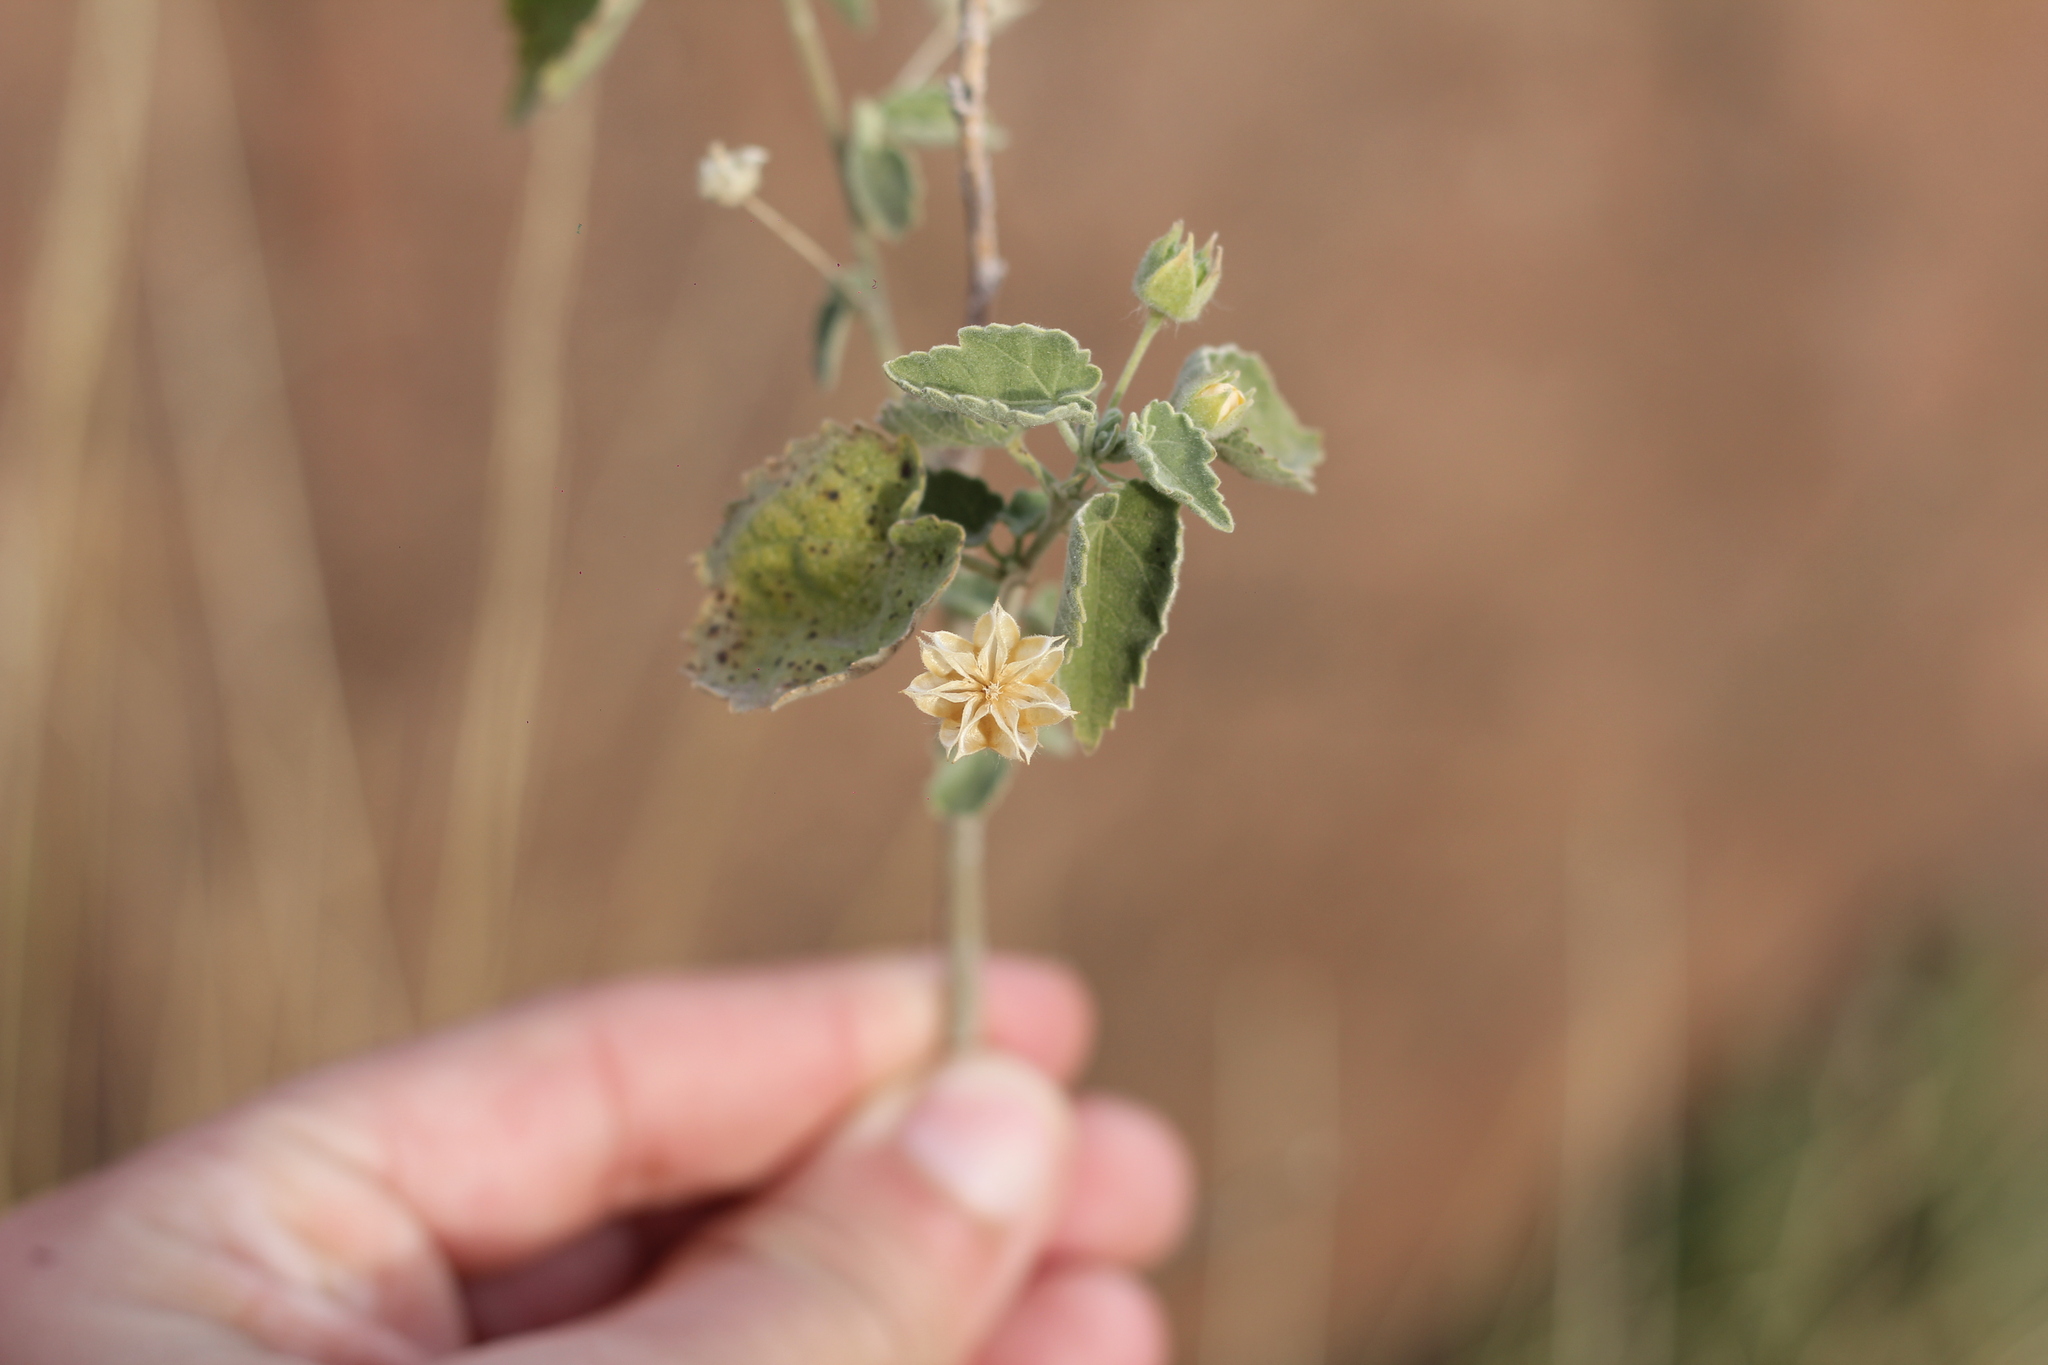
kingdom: Plantae
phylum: Tracheophyta
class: Magnoliopsida
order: Malvales
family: Malvaceae
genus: Gaya
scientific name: Gaya parviflora
